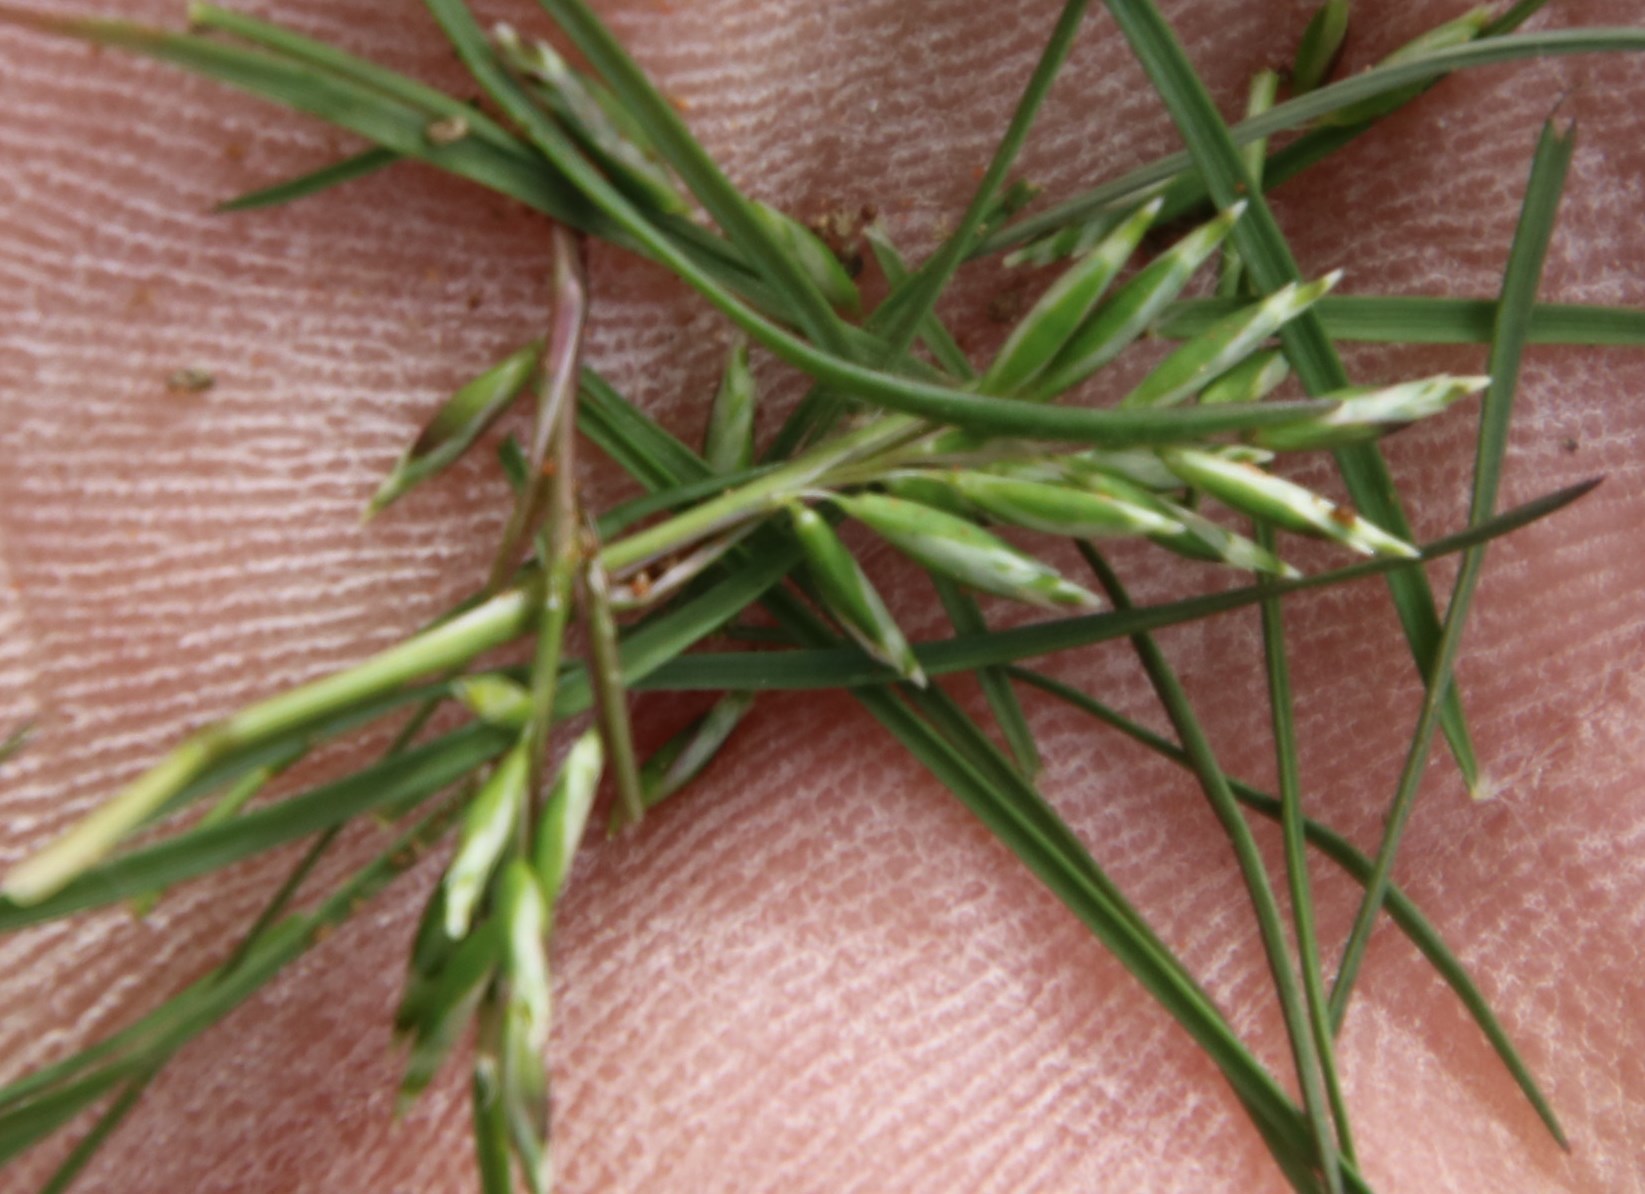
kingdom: Plantae
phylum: Tracheophyta
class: Liliopsida
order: Poales
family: Poaceae
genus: Schismus
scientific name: Schismus barbatus
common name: Kelch-grass
